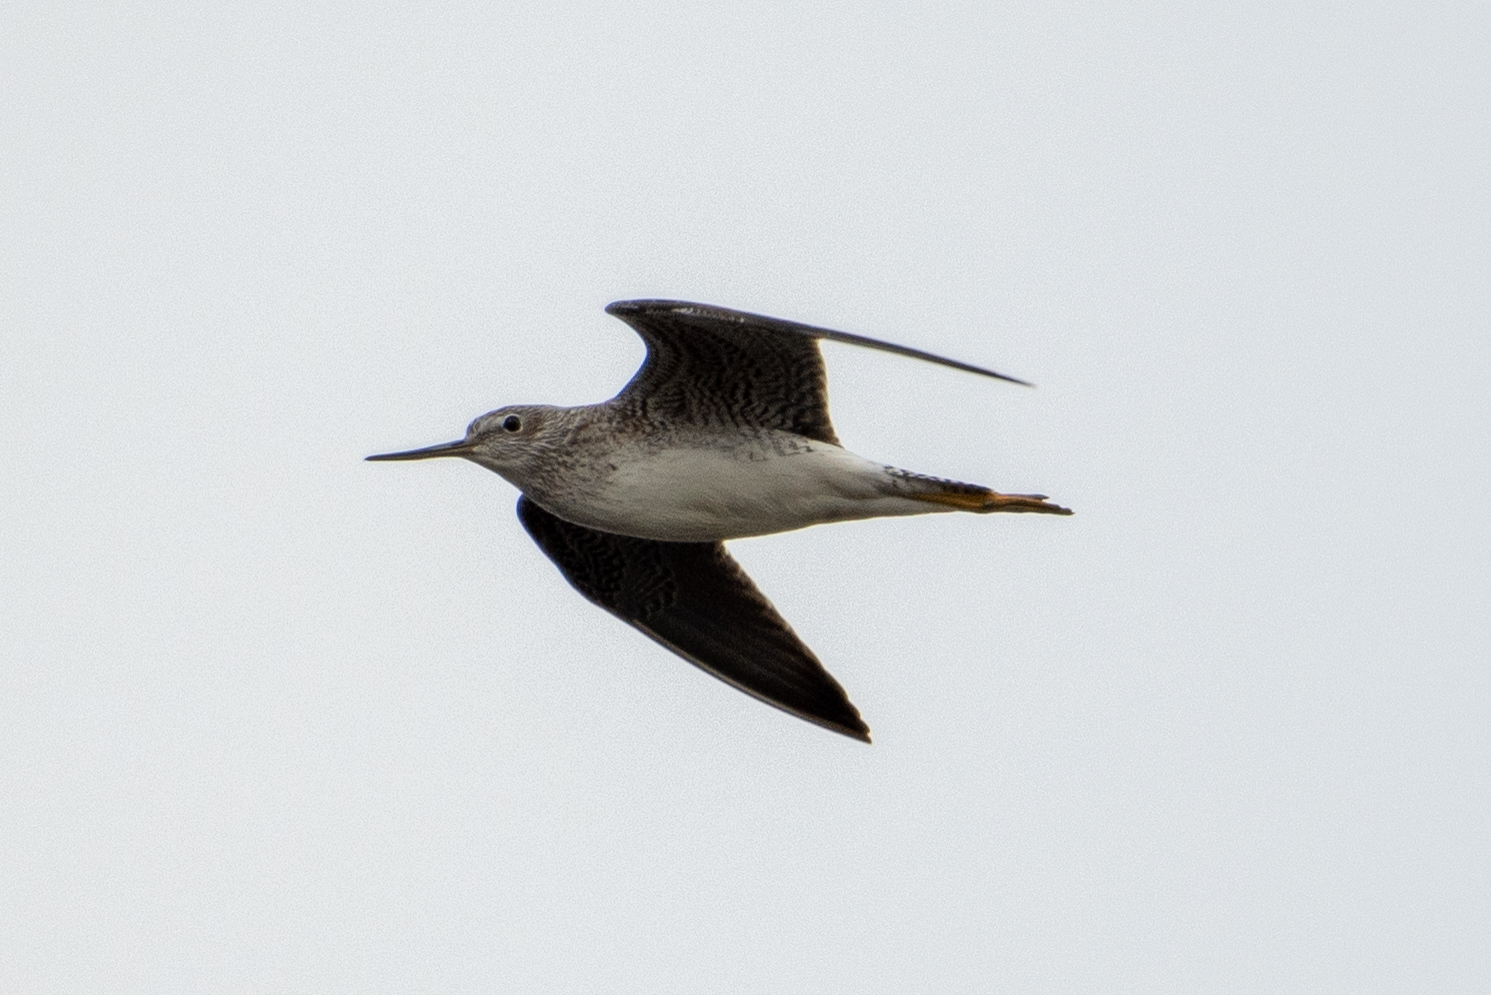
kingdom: Animalia
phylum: Chordata
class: Aves
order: Charadriiformes
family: Scolopacidae
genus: Tringa
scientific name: Tringa melanoleuca
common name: Greater yellowlegs
